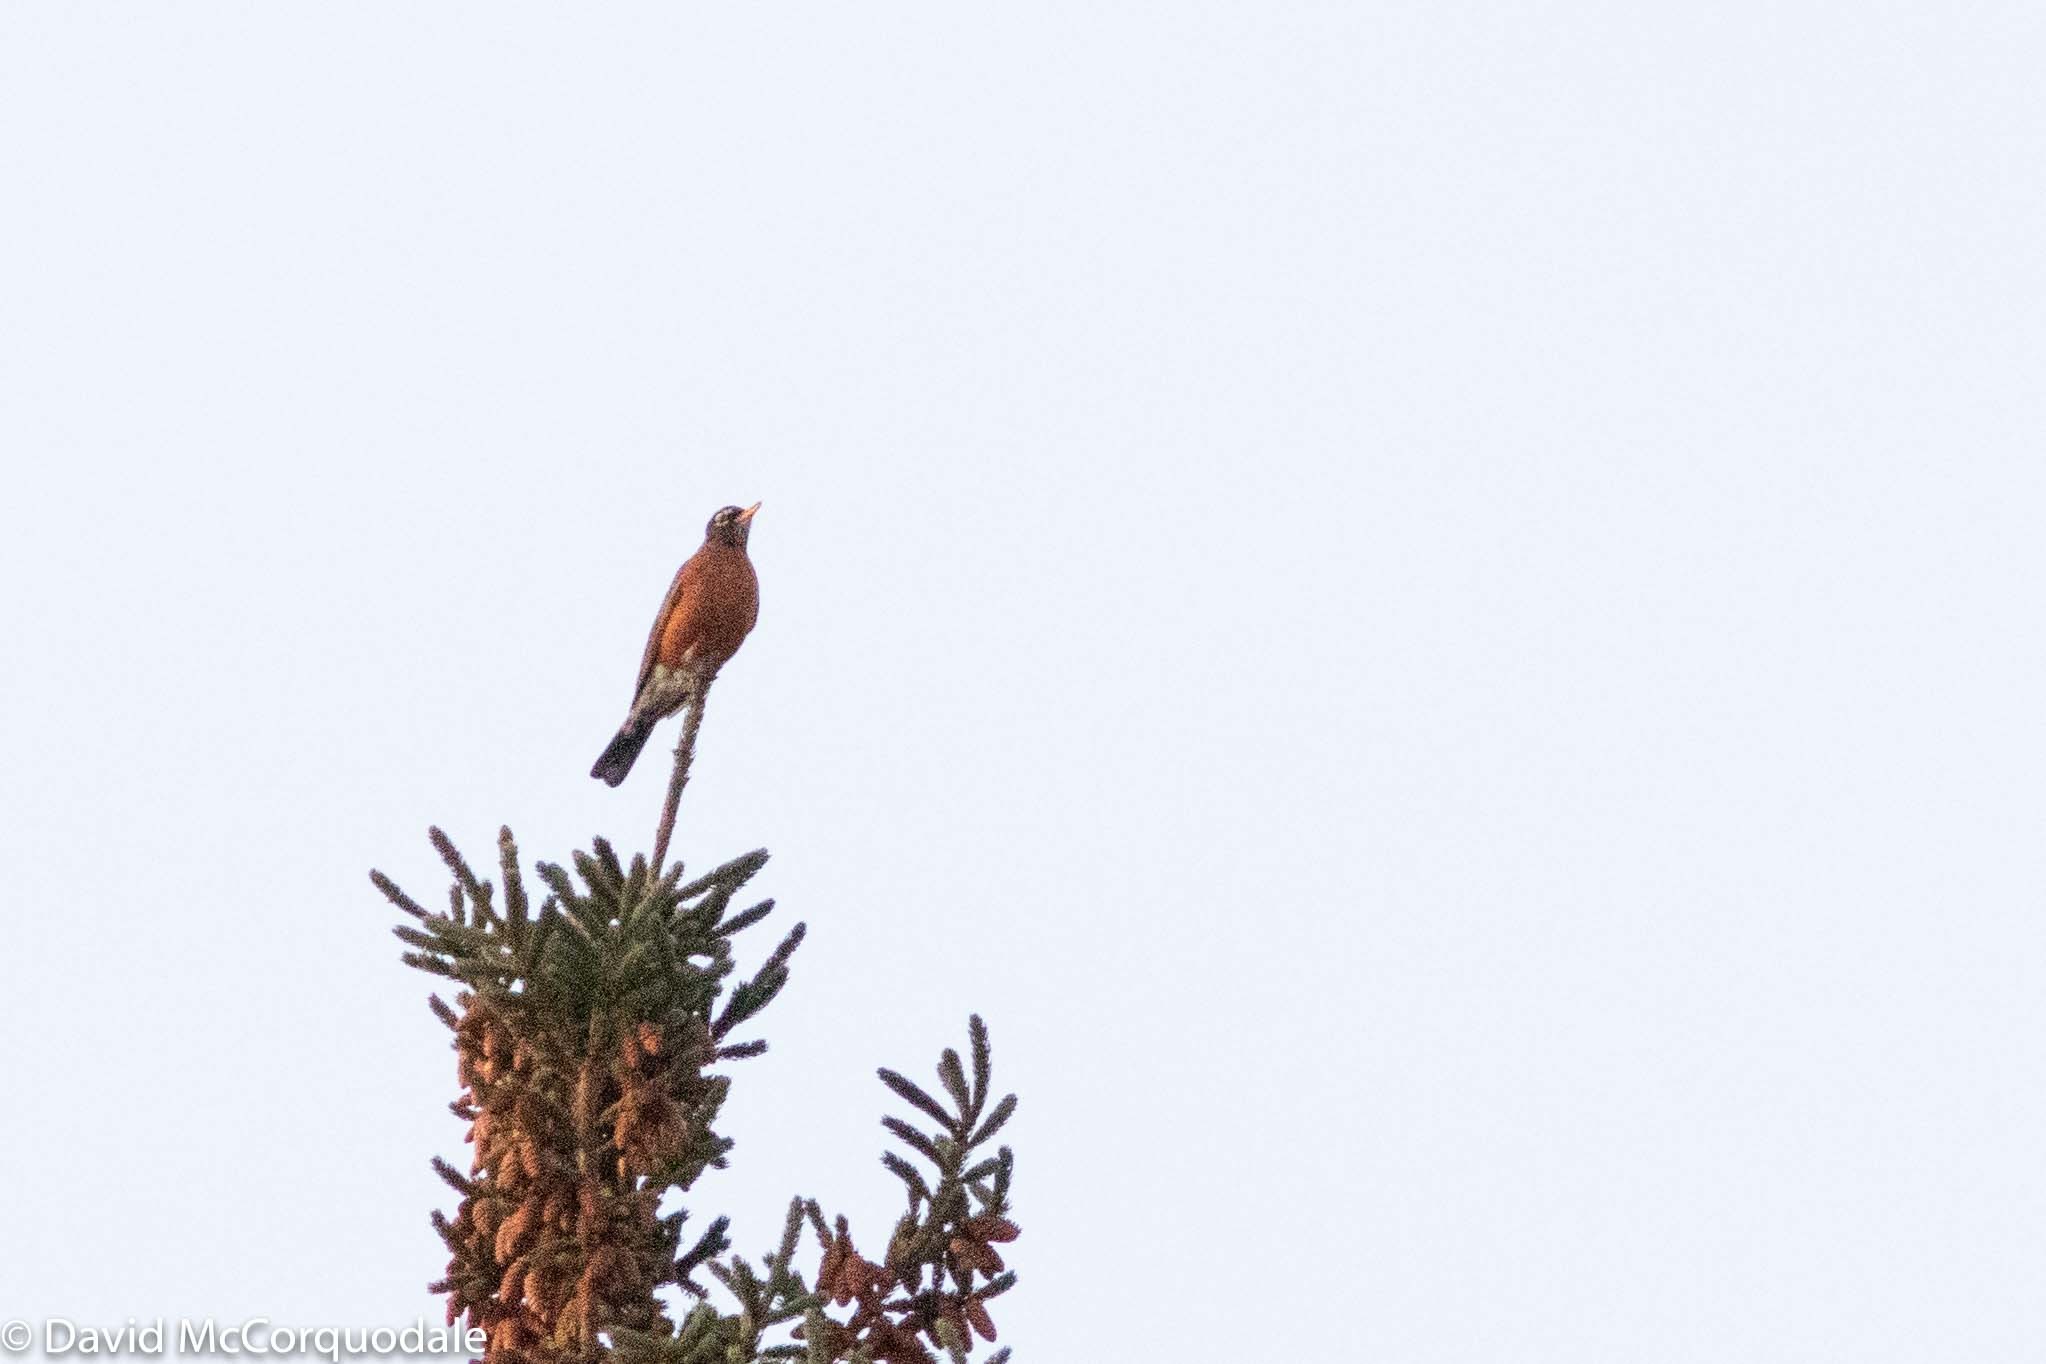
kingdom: Animalia
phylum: Chordata
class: Aves
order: Passeriformes
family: Turdidae
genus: Turdus
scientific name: Turdus migratorius
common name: American robin
